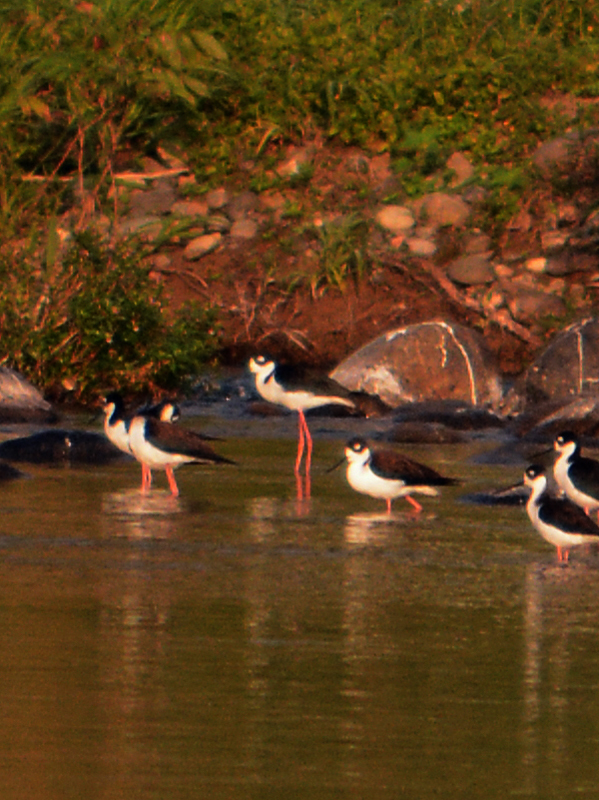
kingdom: Animalia
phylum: Chordata
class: Aves
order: Charadriiformes
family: Recurvirostridae
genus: Himantopus
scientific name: Himantopus mexicanus
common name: Black-necked stilt
